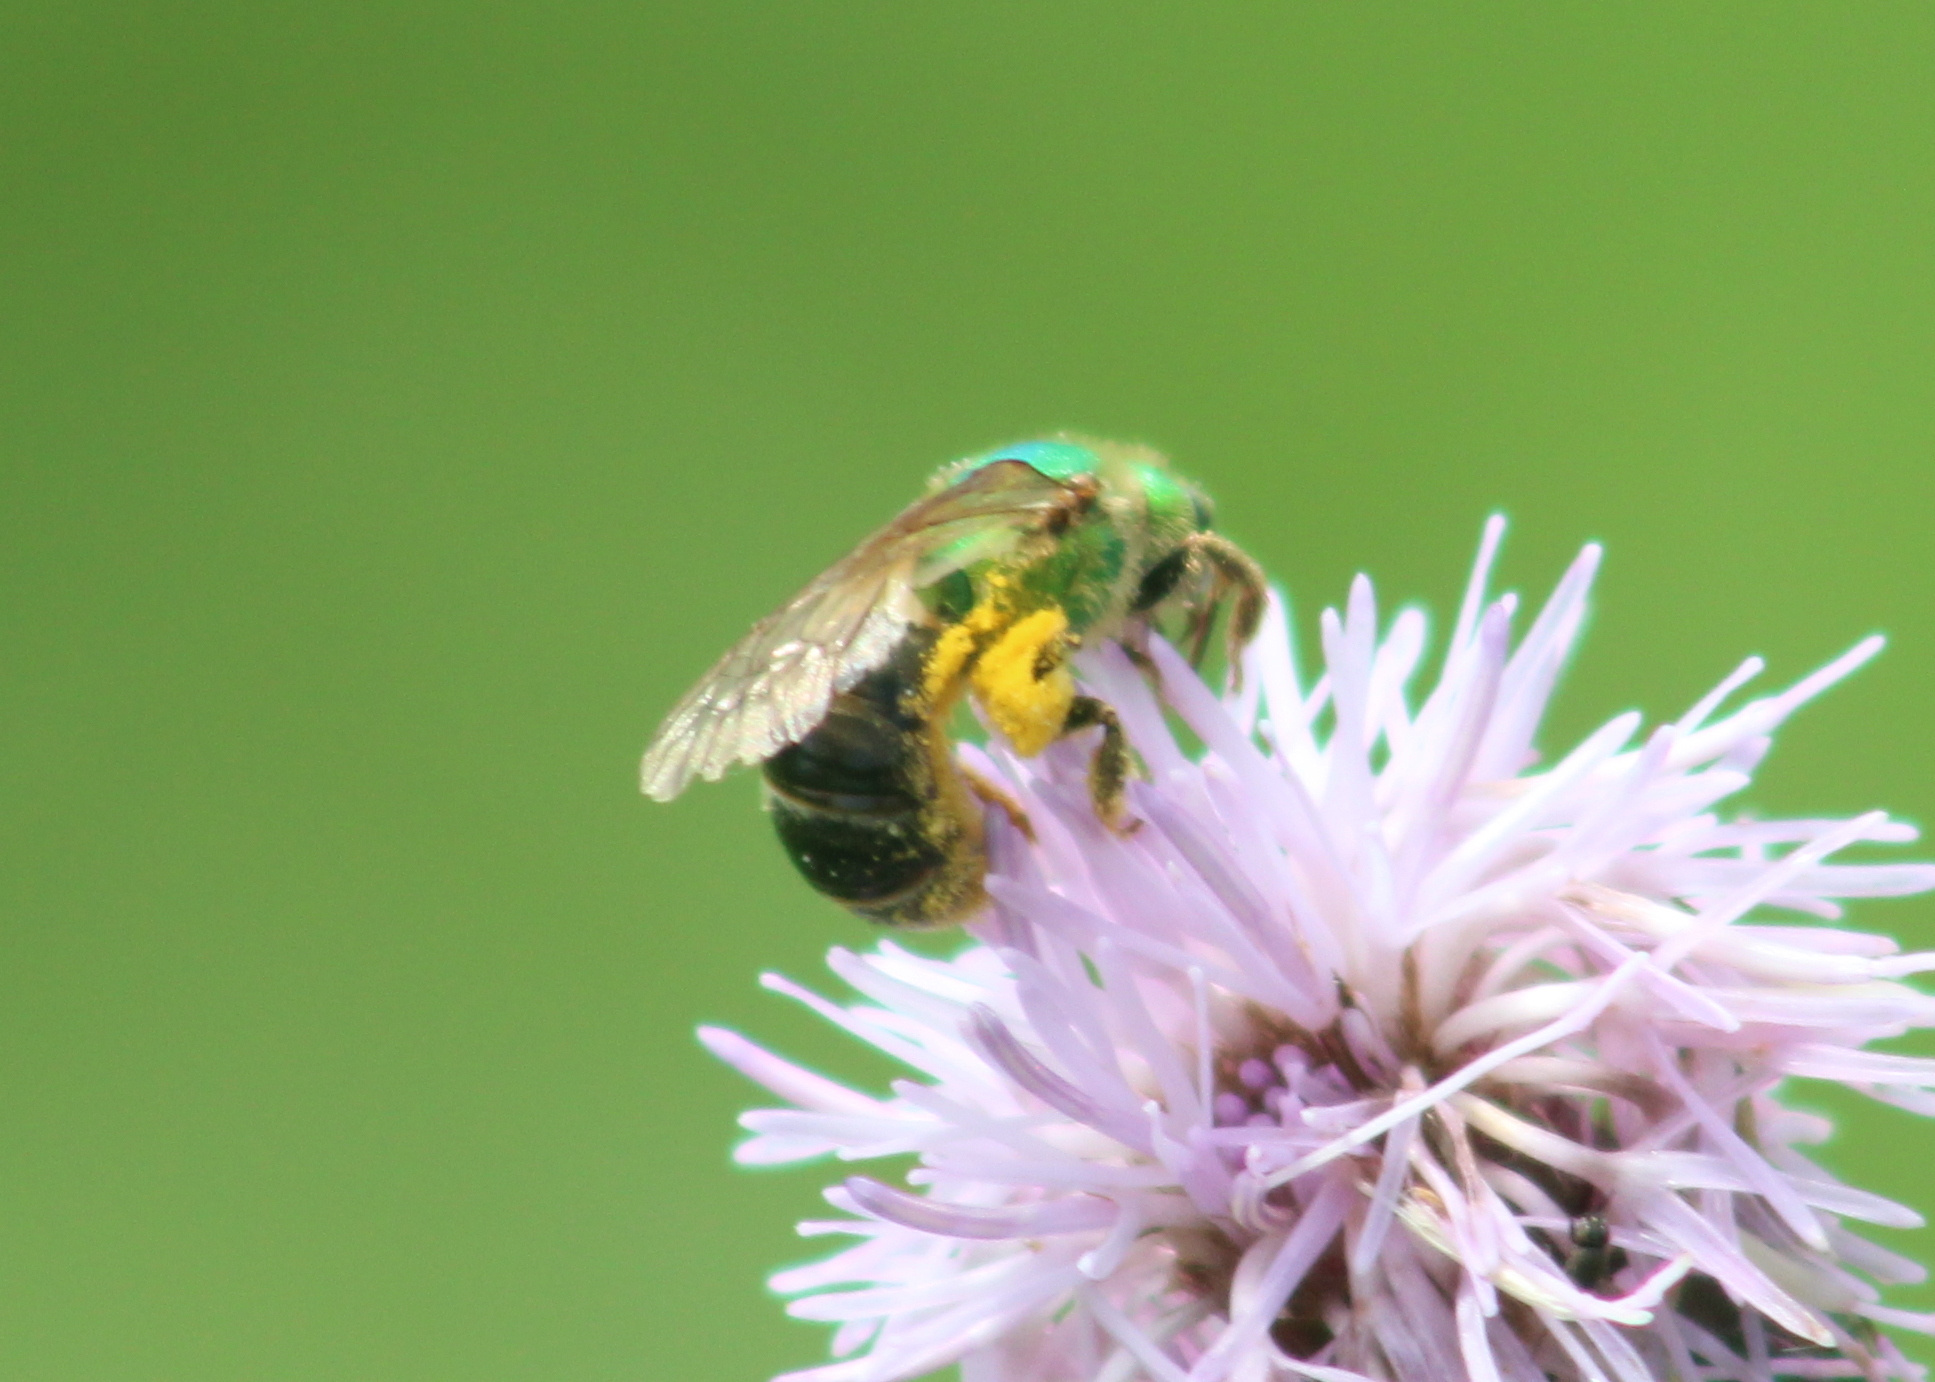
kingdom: Animalia
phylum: Arthropoda
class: Insecta
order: Hymenoptera
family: Halictidae
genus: Agapostemon
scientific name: Agapostemon virescens
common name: Bicolored striped sweat bee
